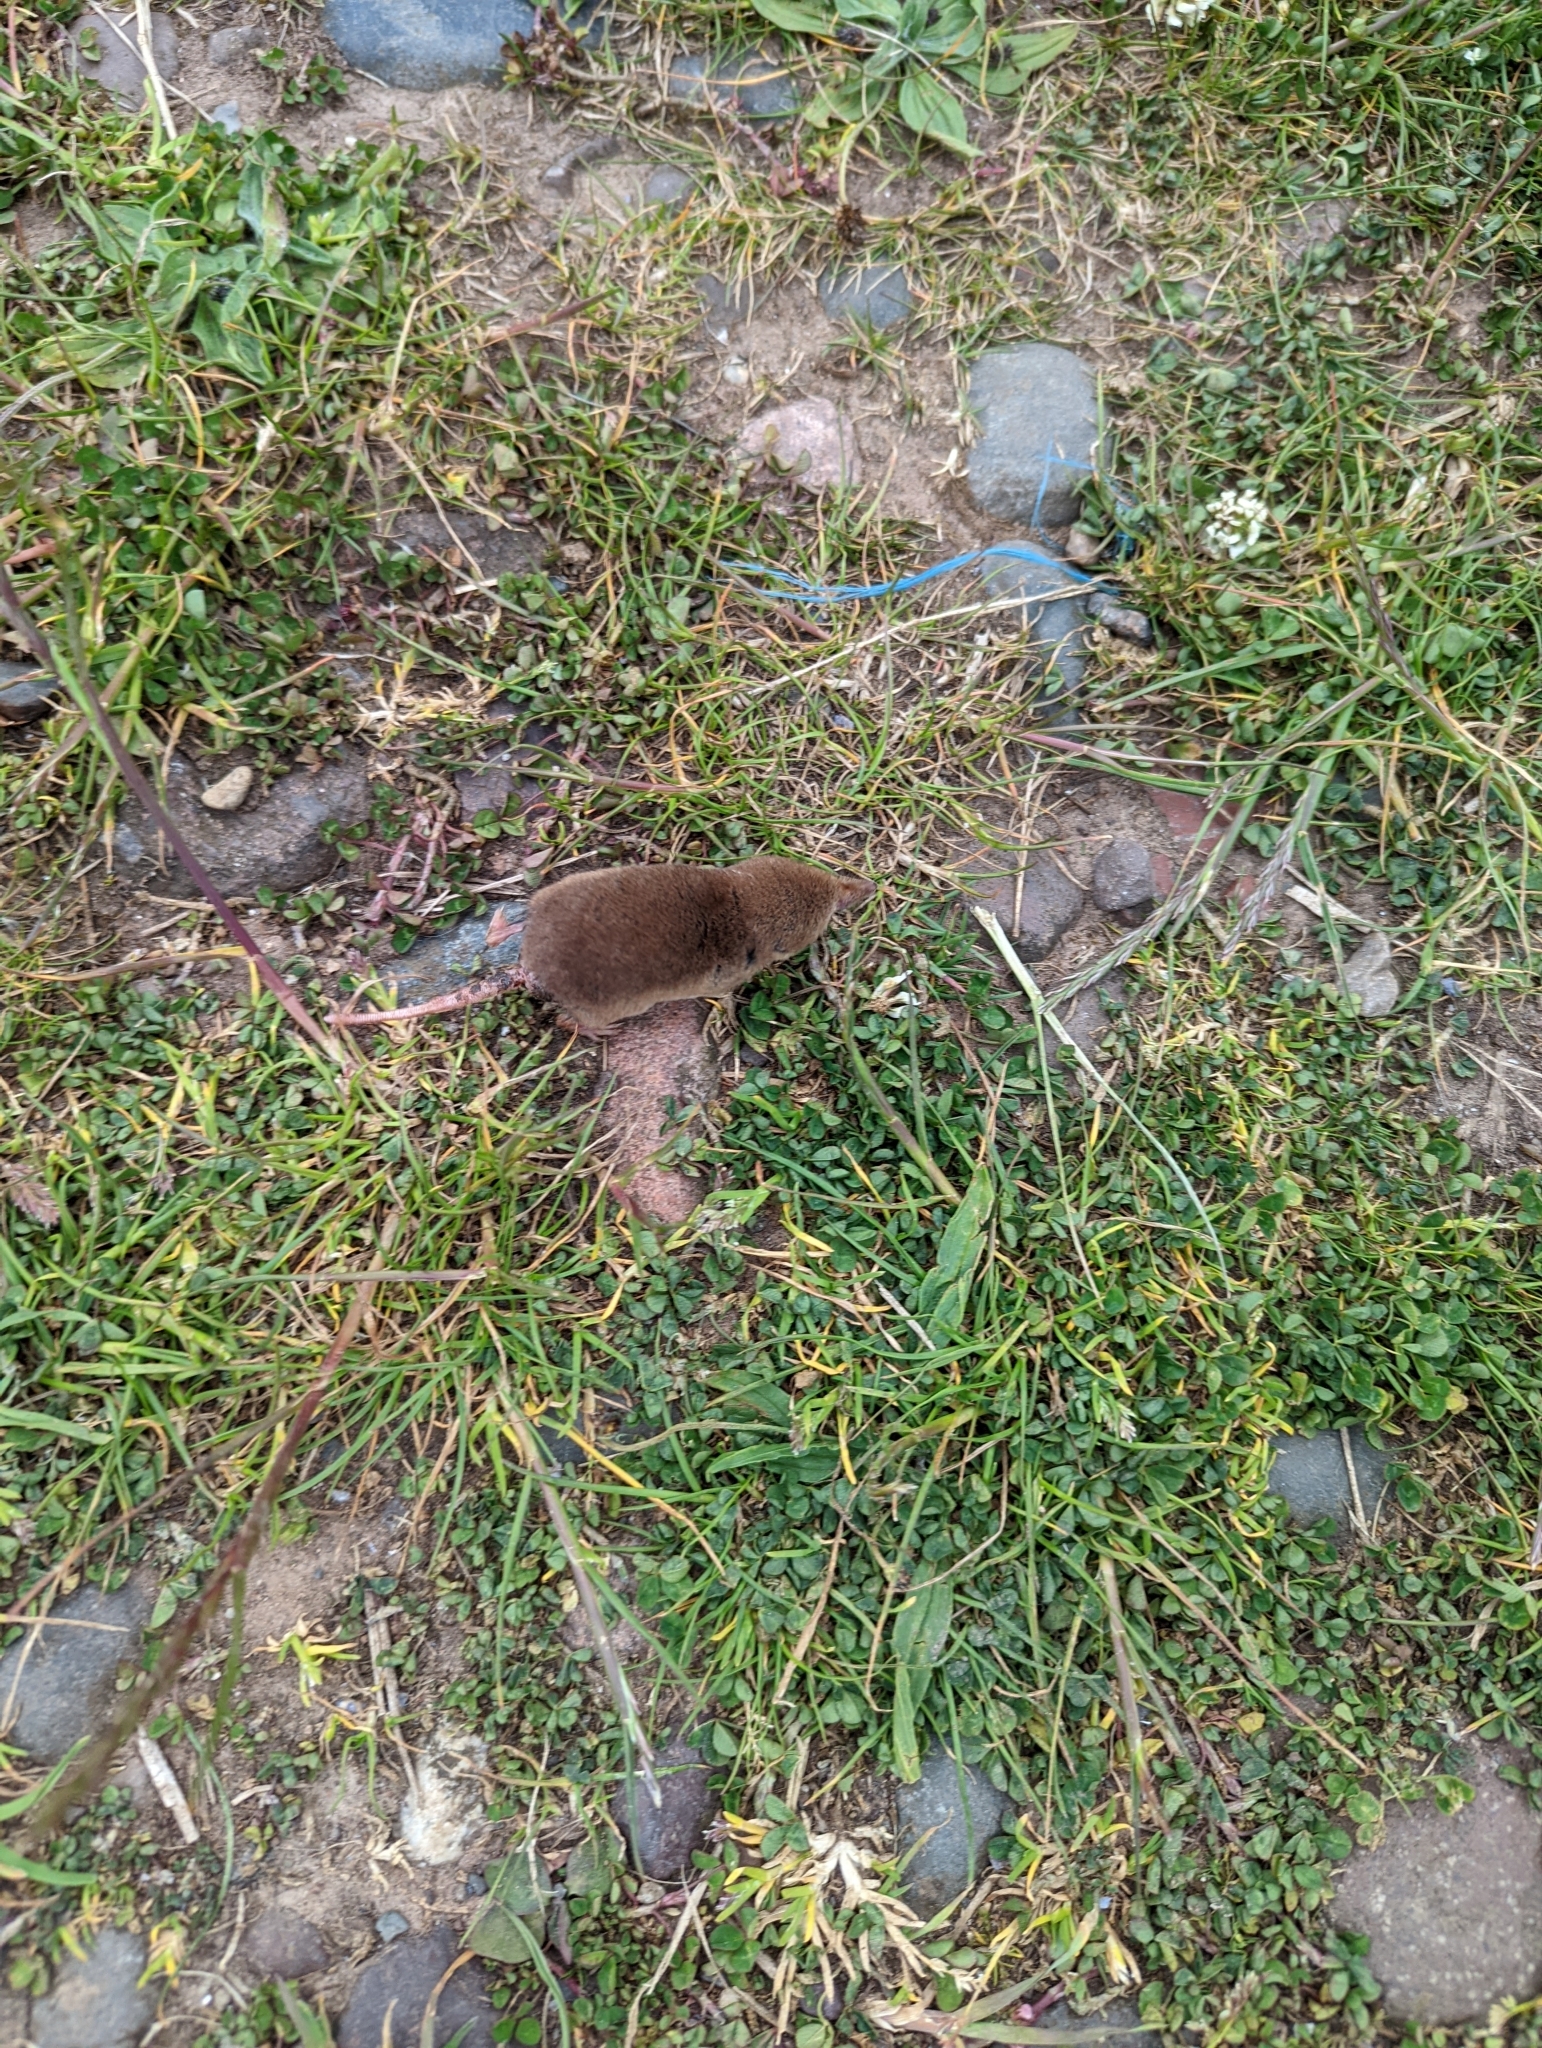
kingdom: Animalia
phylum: Chordata
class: Mammalia
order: Soricomorpha
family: Soricidae
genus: Sorex
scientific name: Sorex araneus
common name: Common shrew
